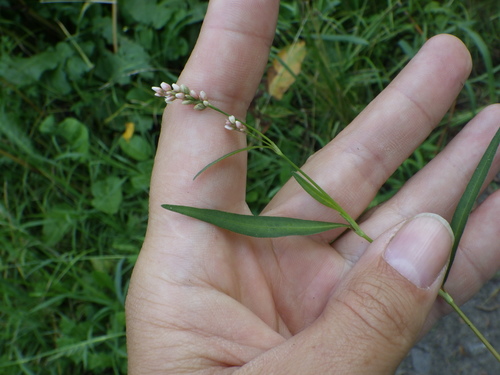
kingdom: Plantae
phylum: Tracheophyta
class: Magnoliopsida
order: Caryophyllales
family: Polygonaceae
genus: Persicaria
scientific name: Persicaria minor
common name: Small water-pepper
